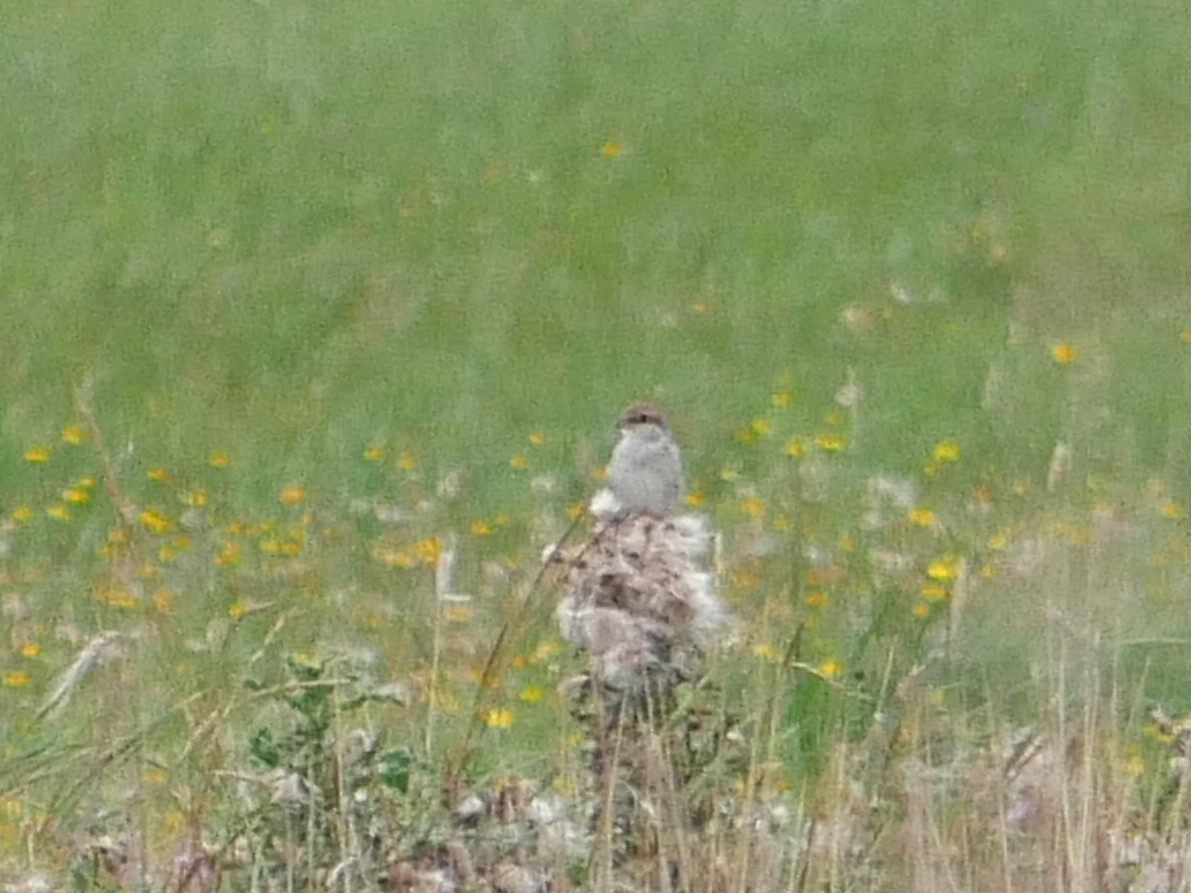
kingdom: Animalia
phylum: Chordata
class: Aves
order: Passeriformes
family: Laniidae
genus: Lanius
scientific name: Lanius collurio
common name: Red-backed shrike
